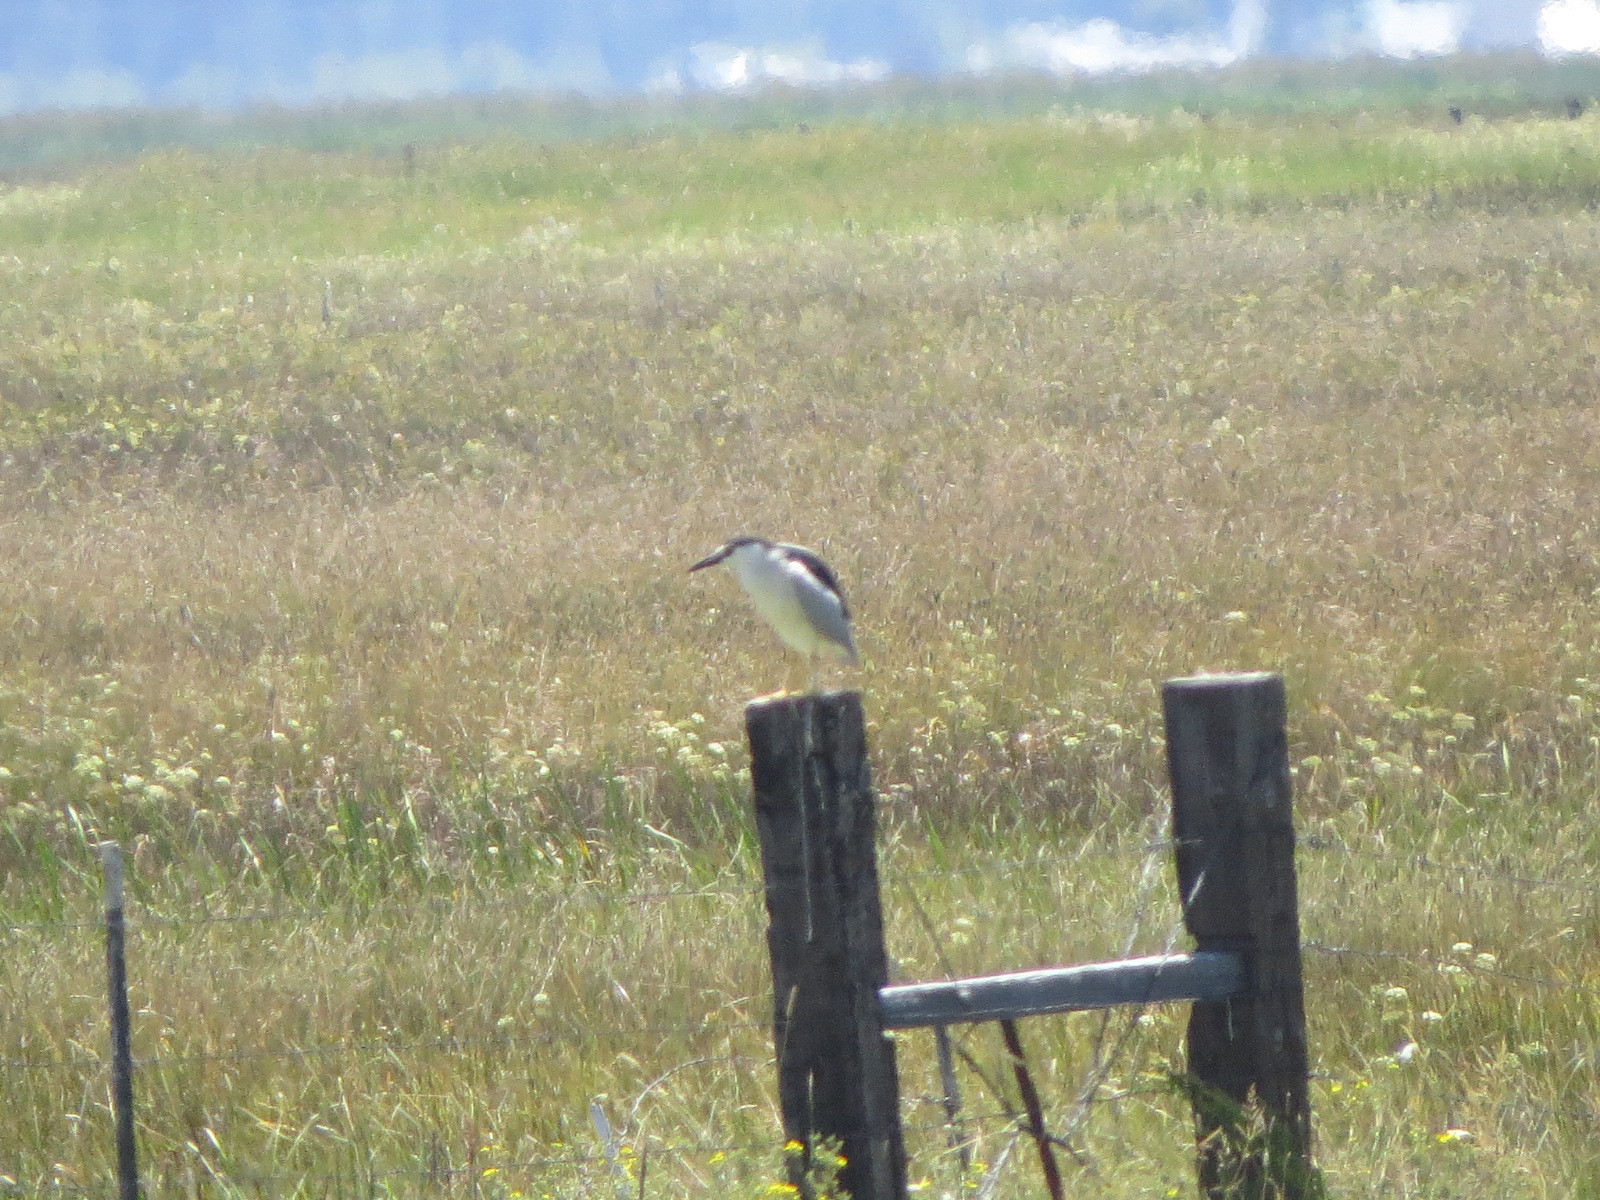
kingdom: Animalia
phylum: Chordata
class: Aves
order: Pelecaniformes
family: Ardeidae
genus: Nycticorax
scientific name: Nycticorax nycticorax
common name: Black-crowned night heron
